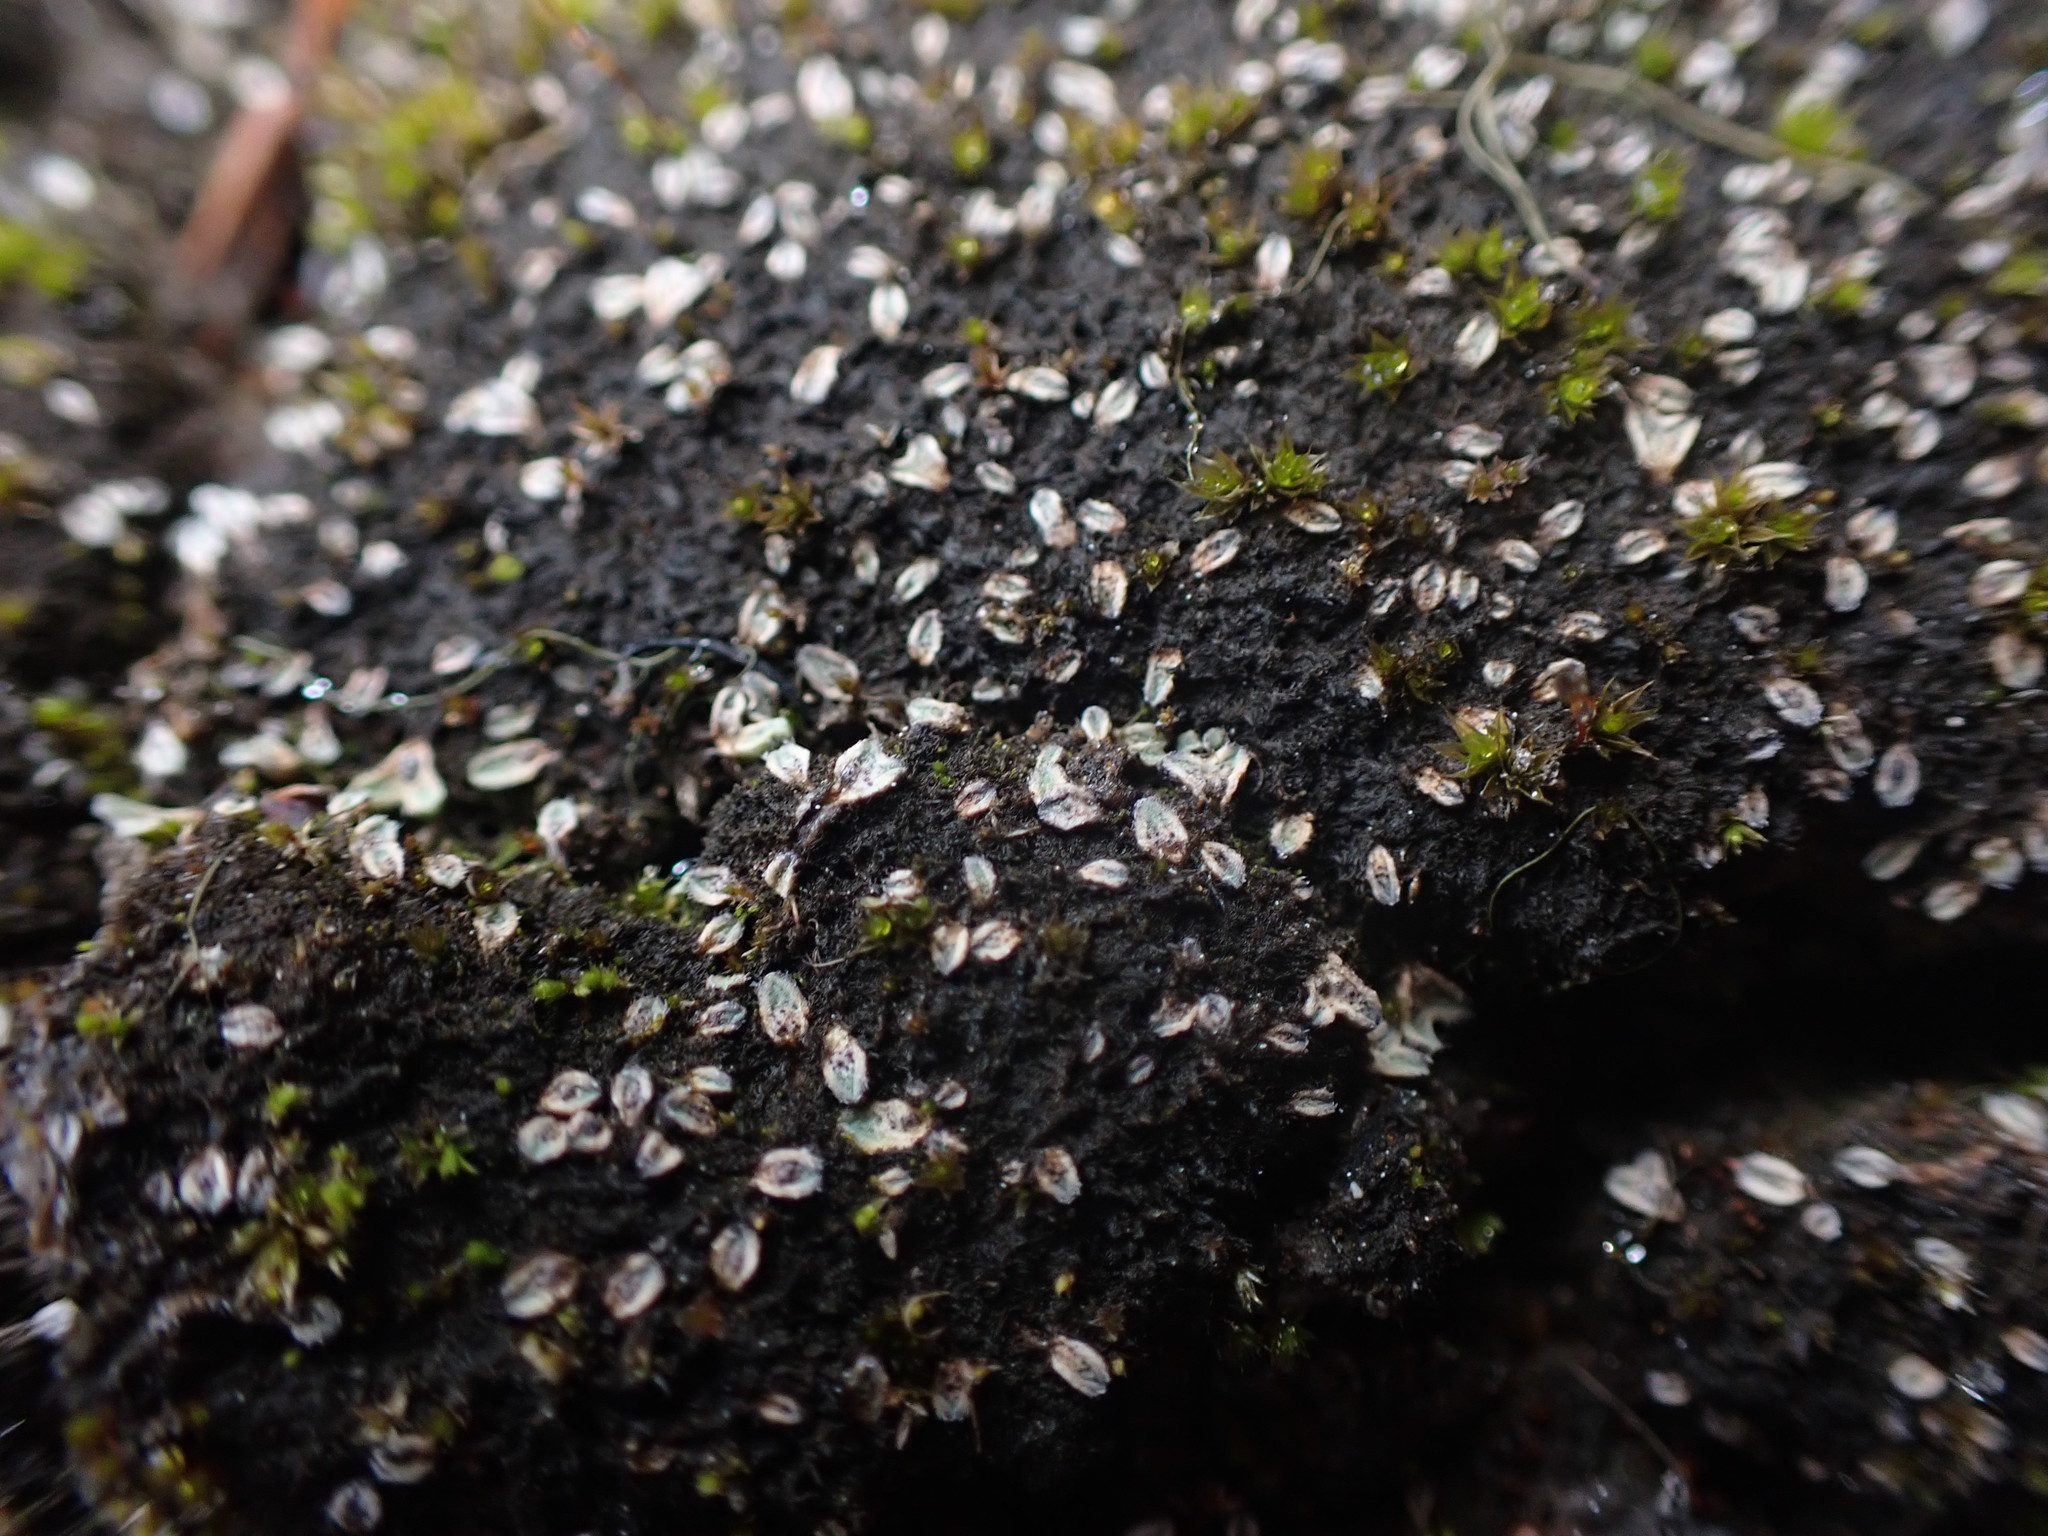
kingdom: Plantae
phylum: Marchantiophyta
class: Marchantiopsida
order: Marchantiales
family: Ricciaceae
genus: Riccia
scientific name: Riccia trichocarpa
